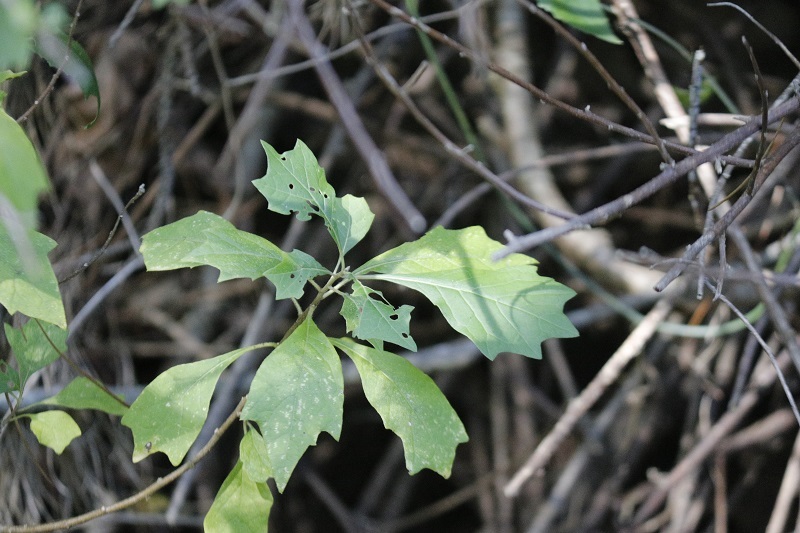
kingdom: Plantae
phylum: Tracheophyta
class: Magnoliopsida
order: Asterales
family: Asteraceae
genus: Gymnanthemum
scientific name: Gymnanthemum capense
